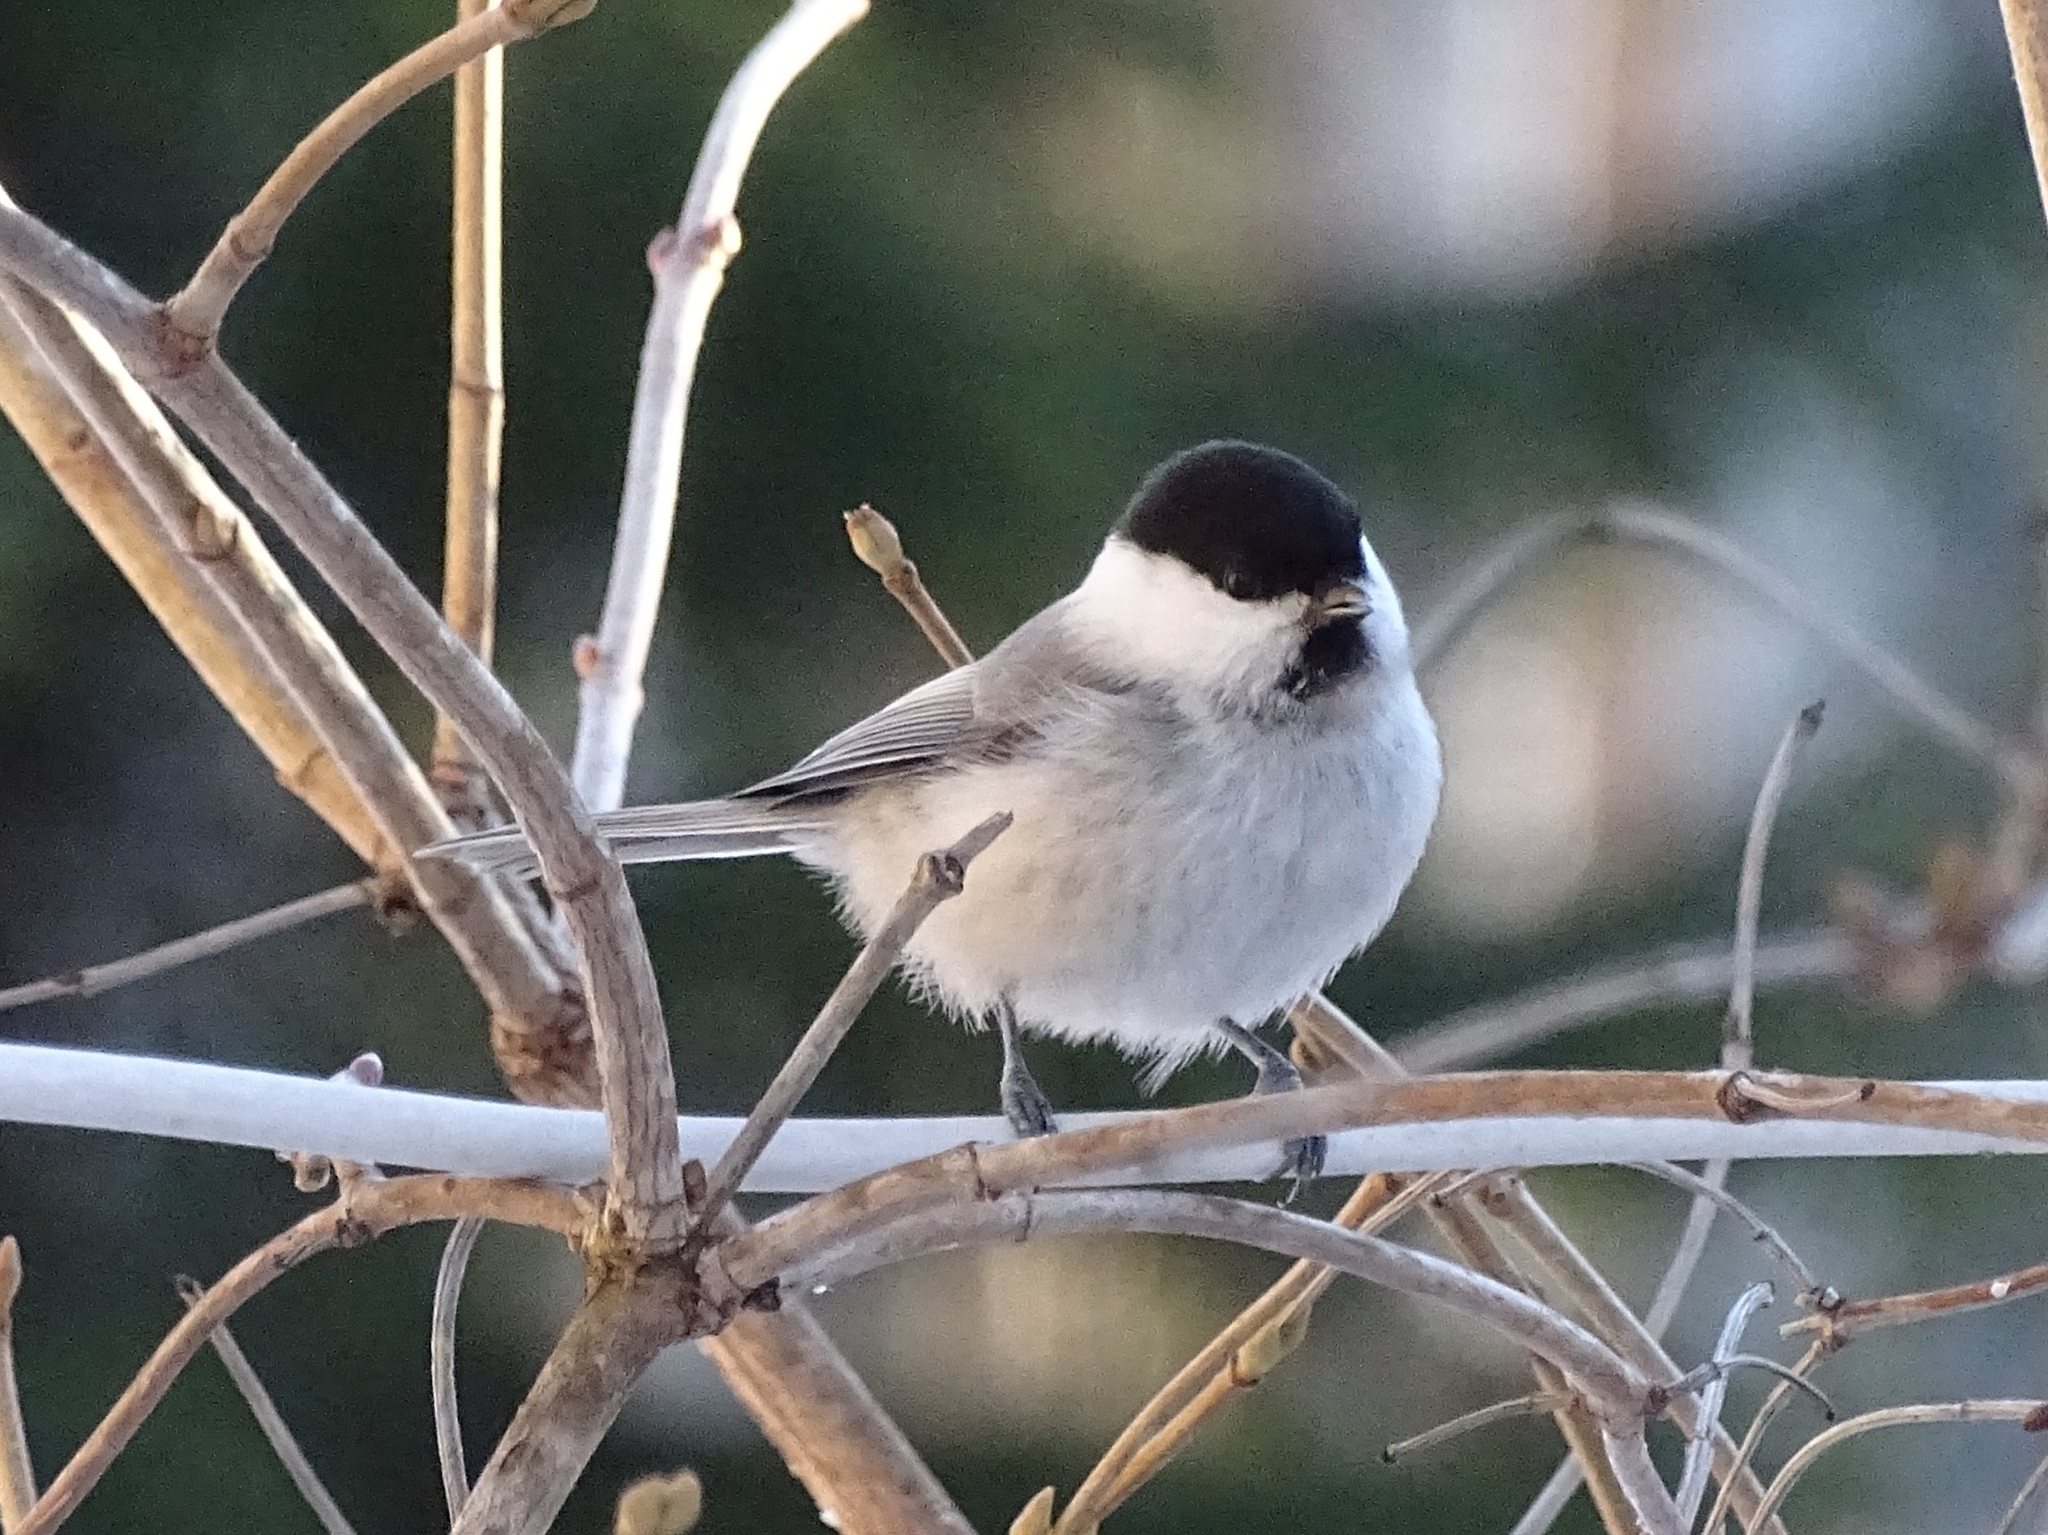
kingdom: Animalia
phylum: Chordata
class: Aves
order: Passeriformes
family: Paridae
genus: Poecile
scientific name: Poecile montanus
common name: Willow tit
